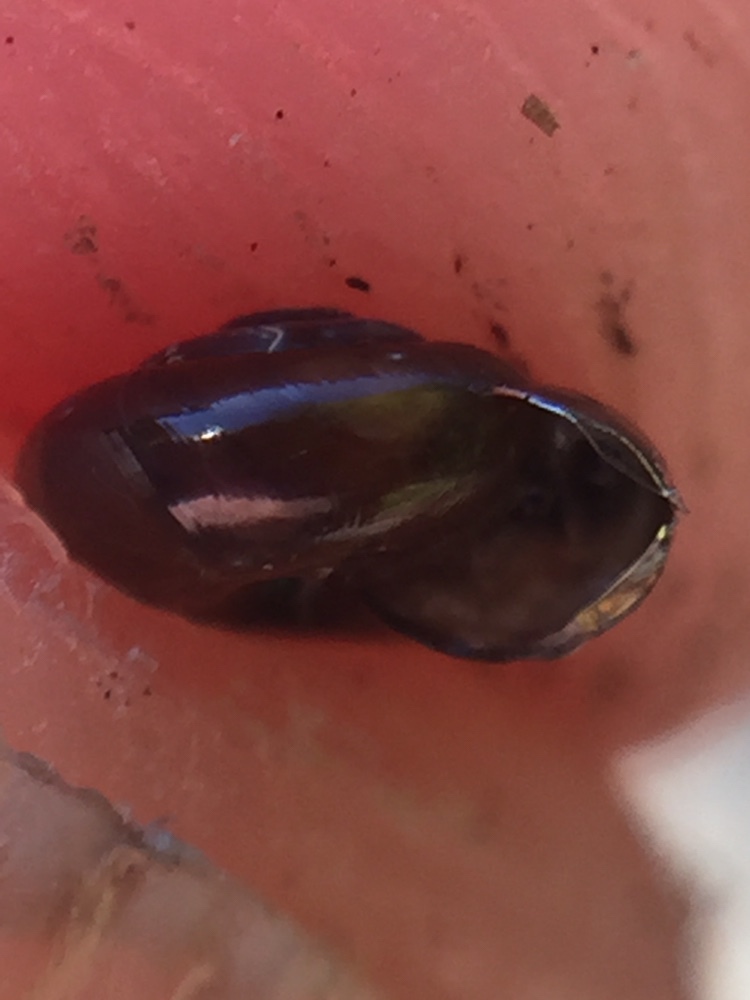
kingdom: Animalia
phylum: Mollusca
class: Gastropoda
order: Stylommatophora
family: Gastrodontidae
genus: Zonitoides
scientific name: Zonitoides arboreus
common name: Quick gloss
